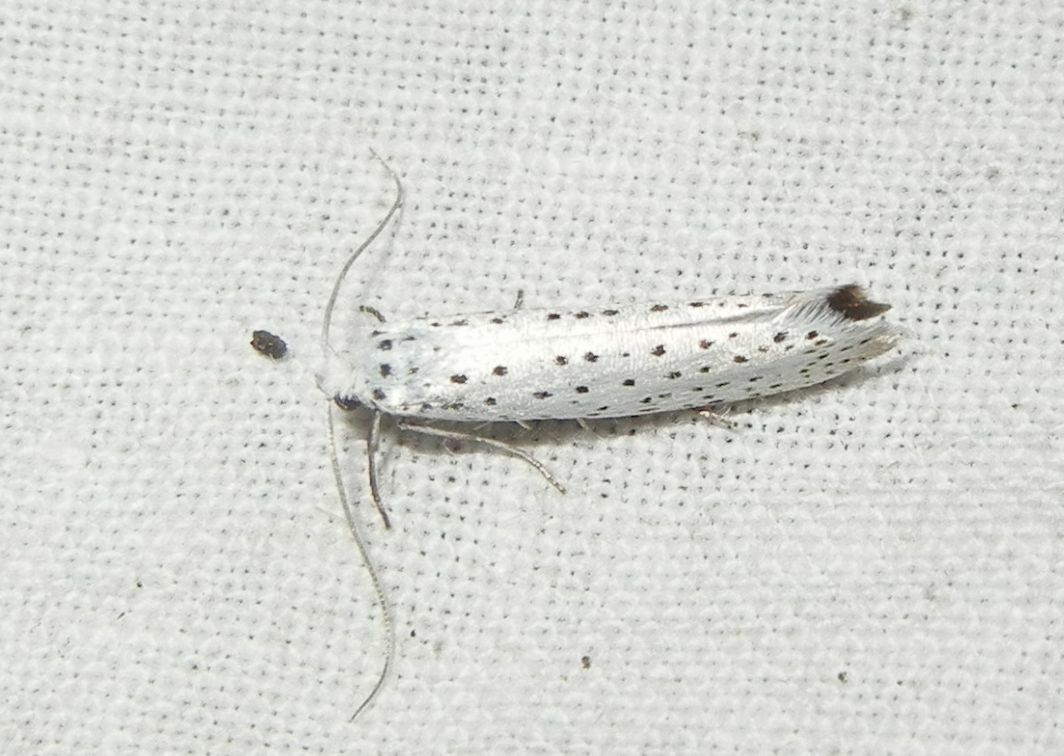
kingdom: Animalia
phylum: Arthropoda
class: Insecta
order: Lepidoptera
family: Yponomeutidae
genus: Yponomeuta
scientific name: Yponomeuta evonymella
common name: Bird-cherry ermine
